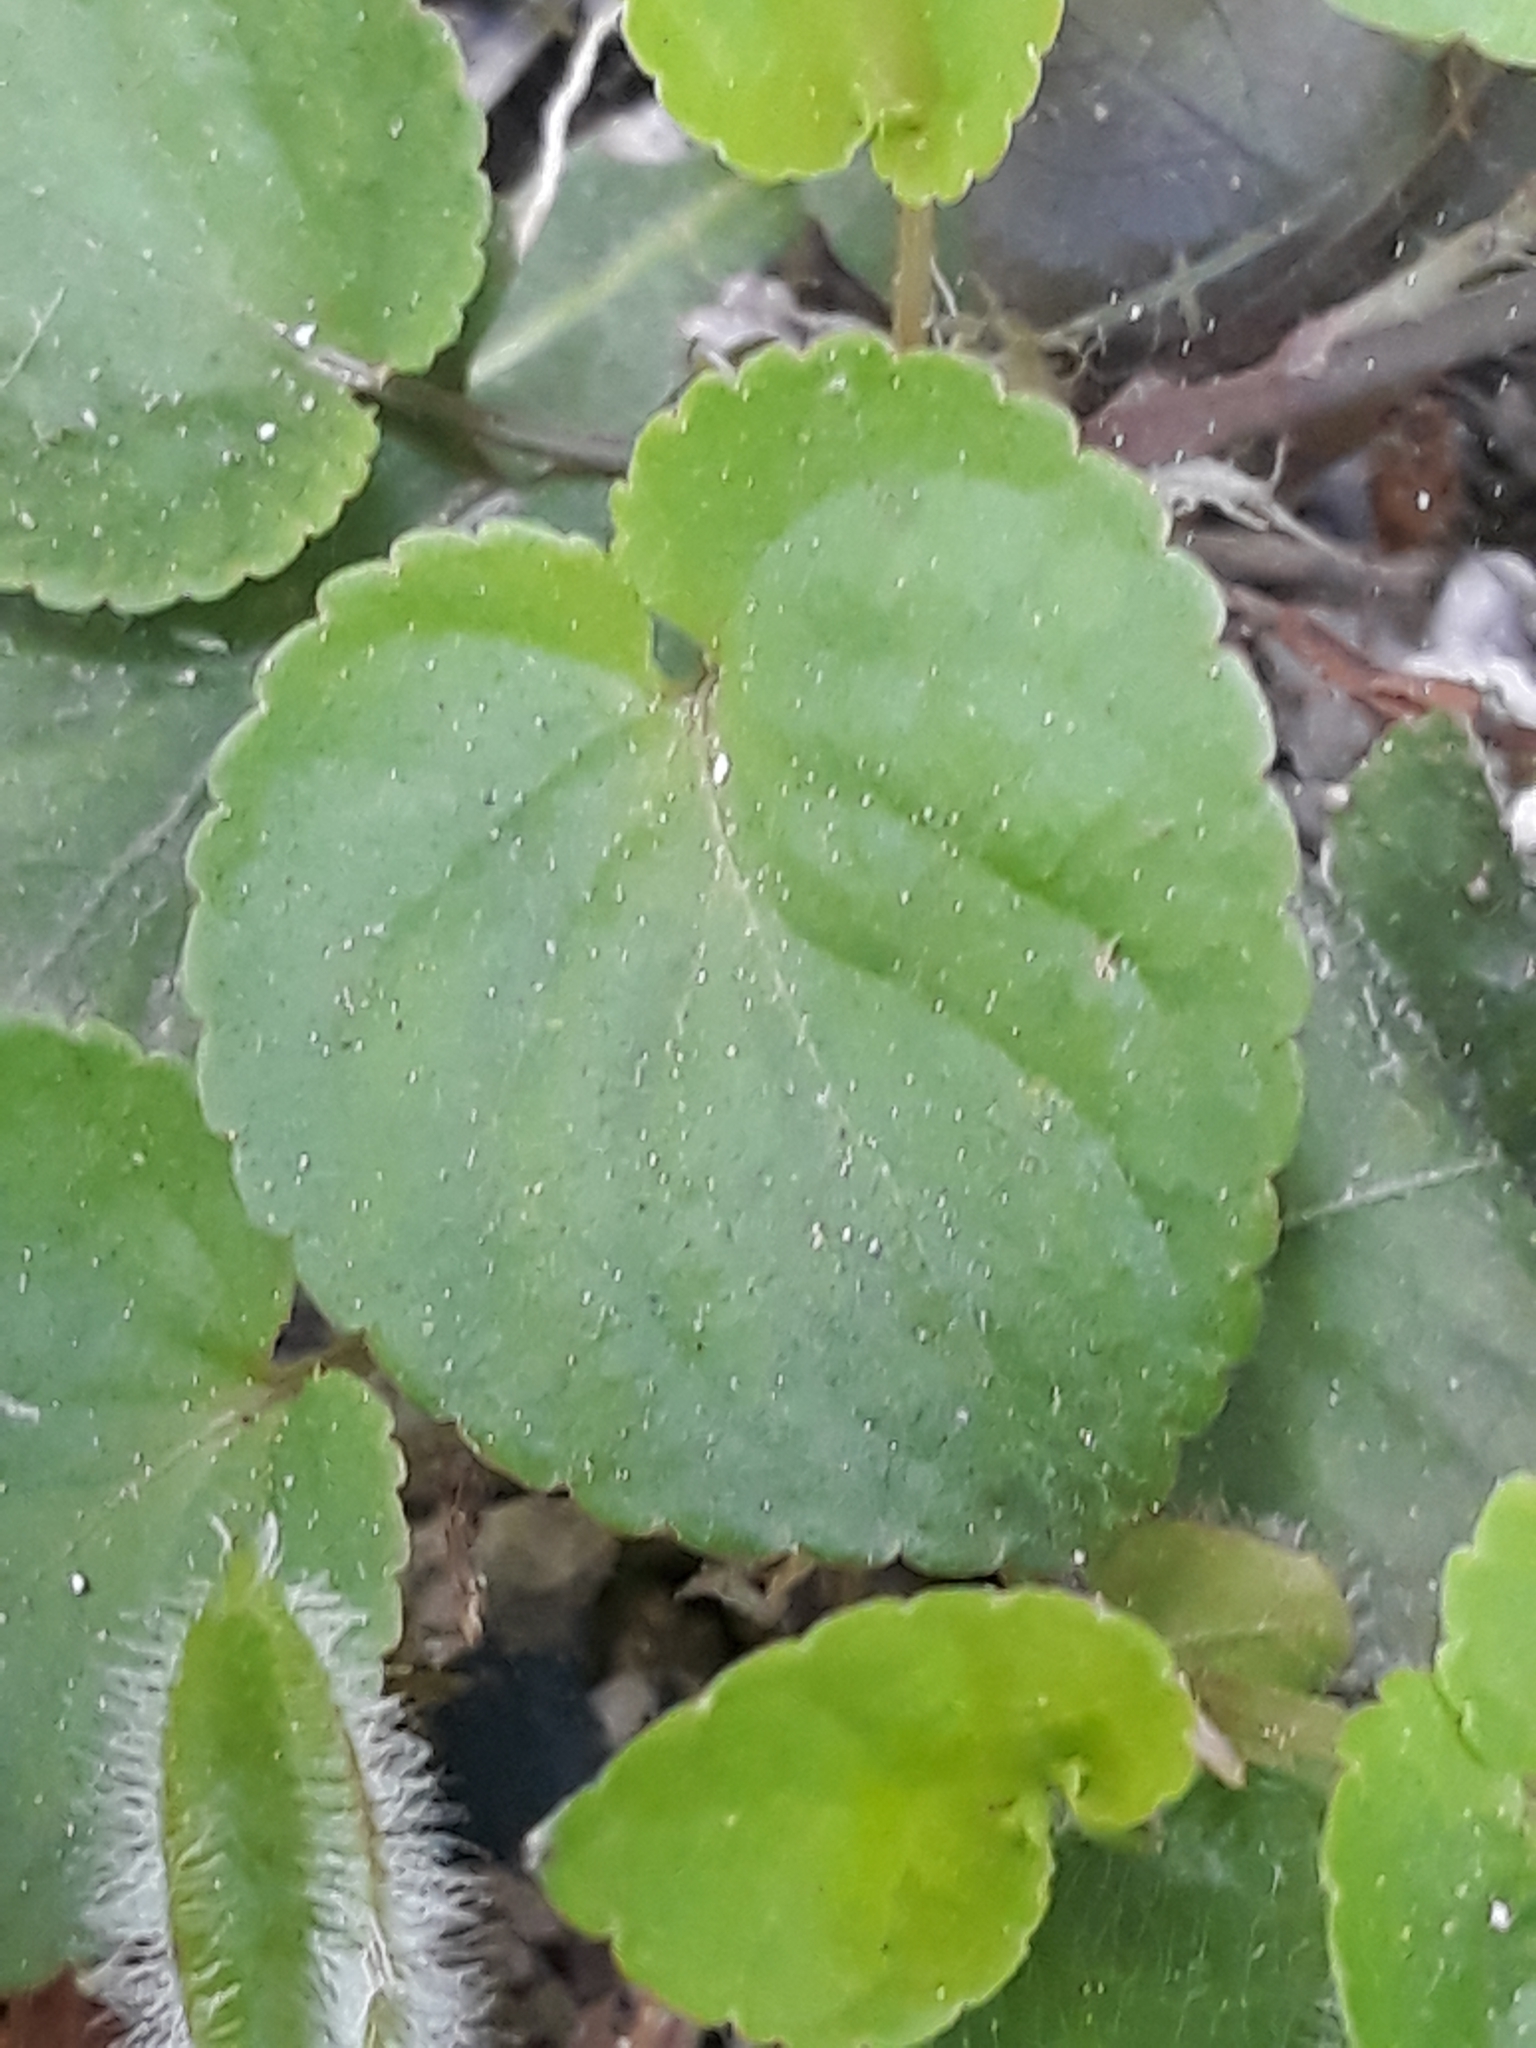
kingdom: Plantae
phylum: Tracheophyta
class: Magnoliopsida
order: Malpighiales
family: Violaceae
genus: Viola
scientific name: Viola riviniana
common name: Common dog-violet
